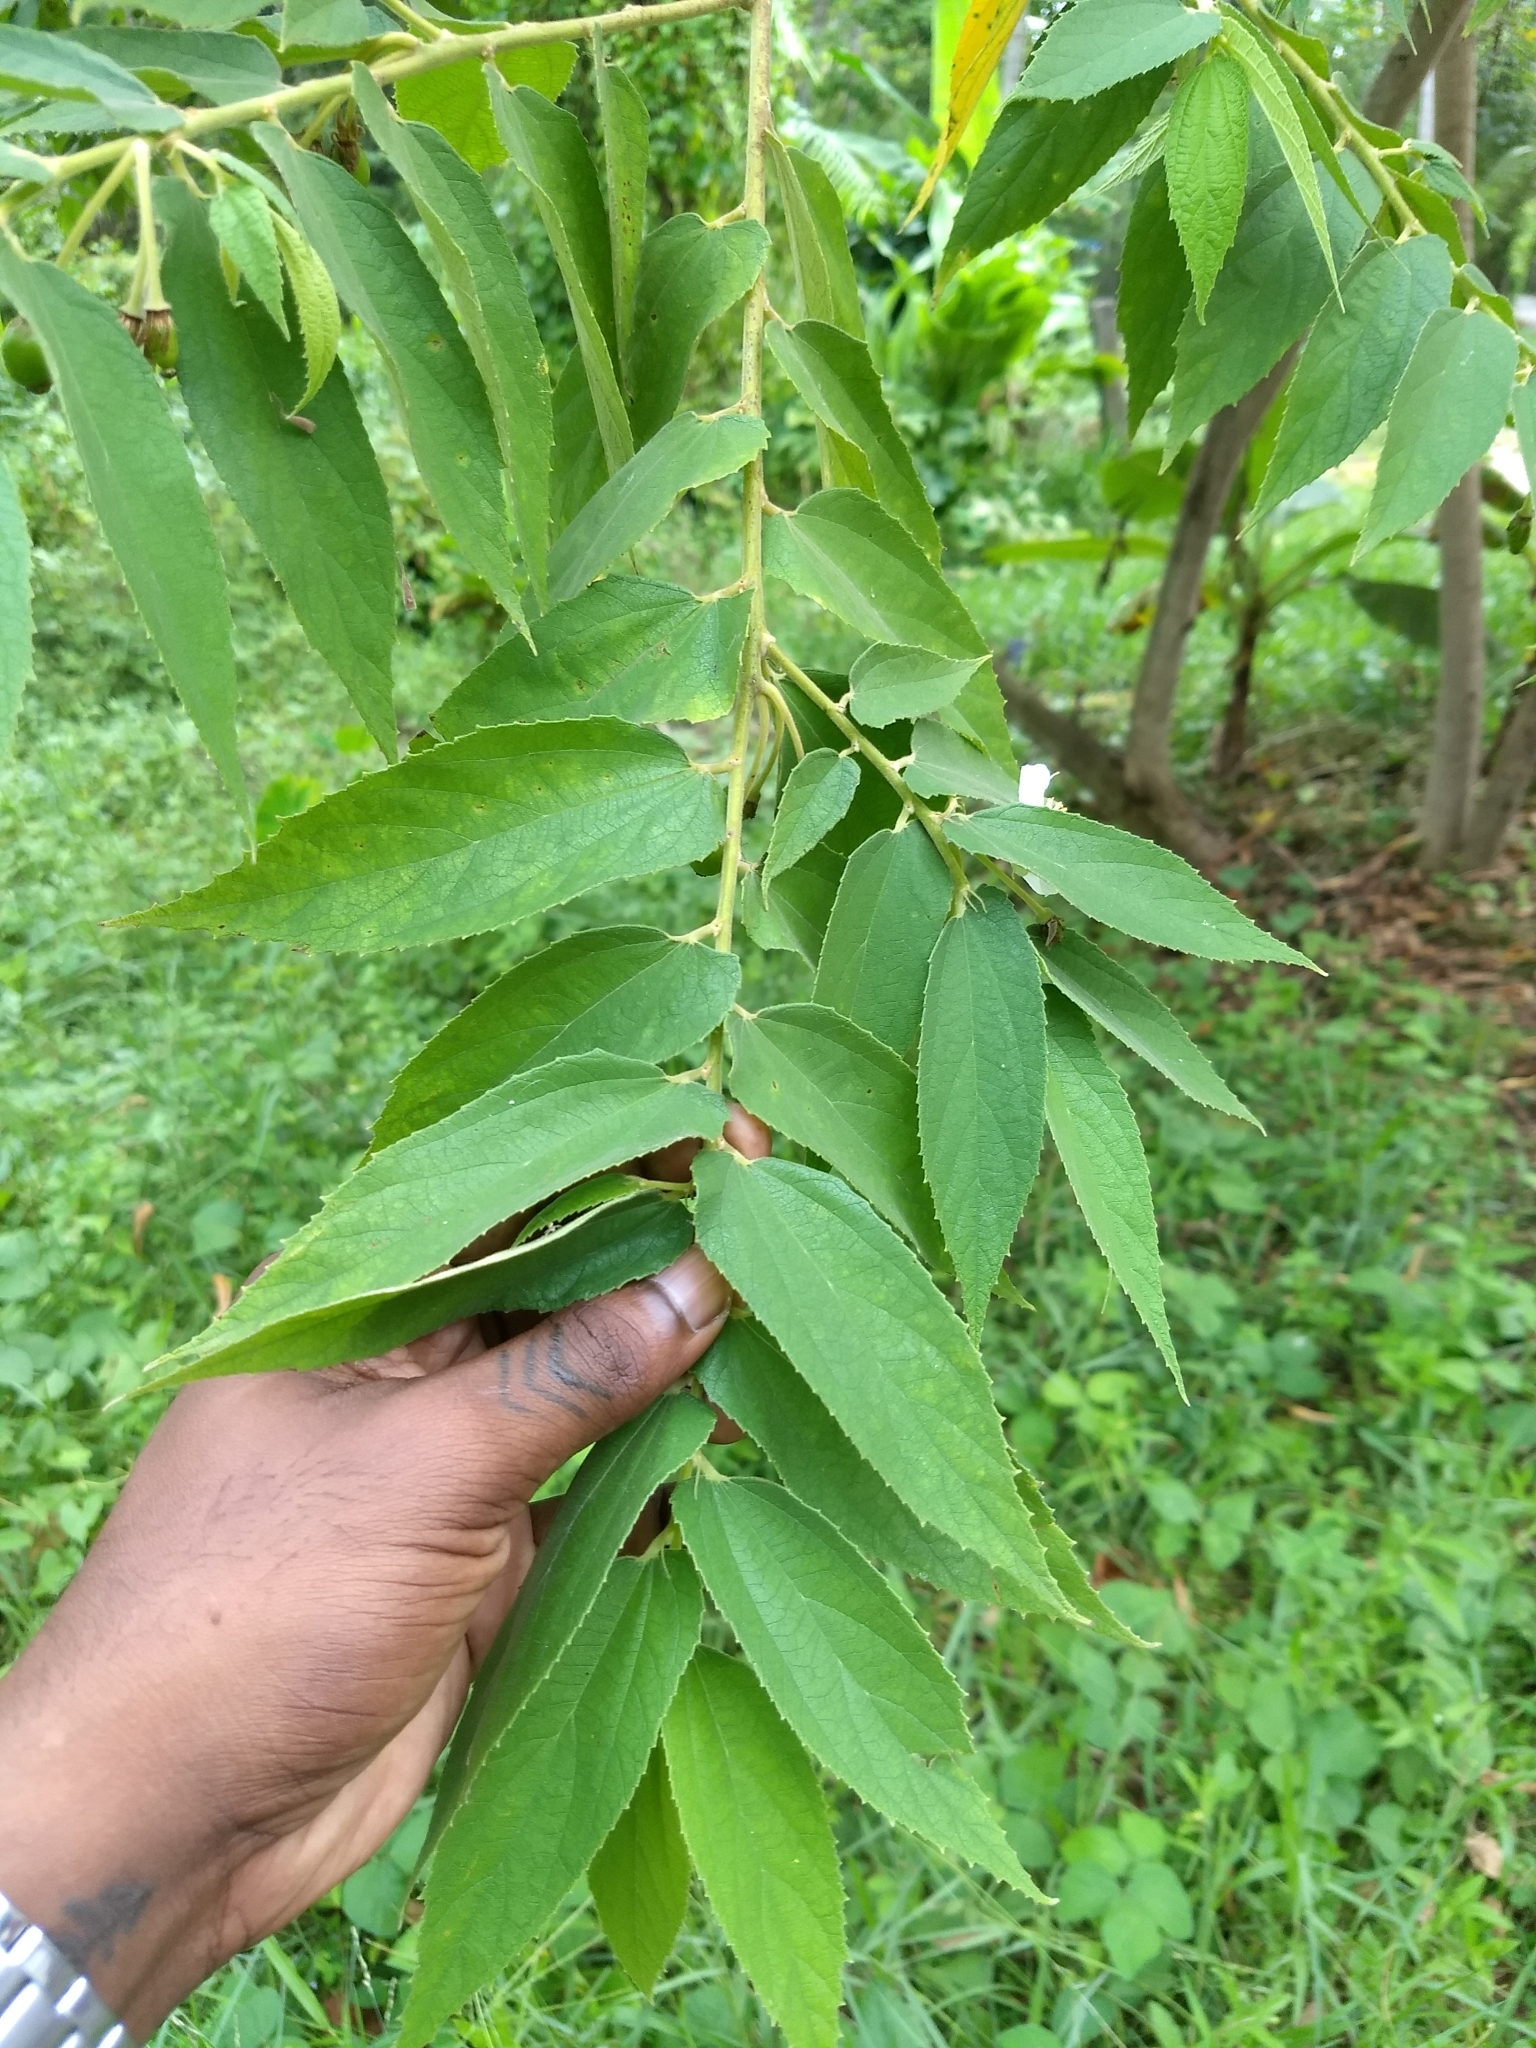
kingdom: Plantae
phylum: Tracheophyta
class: Magnoliopsida
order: Malvales
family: Muntingiaceae
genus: Muntingia
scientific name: Muntingia calabura
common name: Strawberrytree
